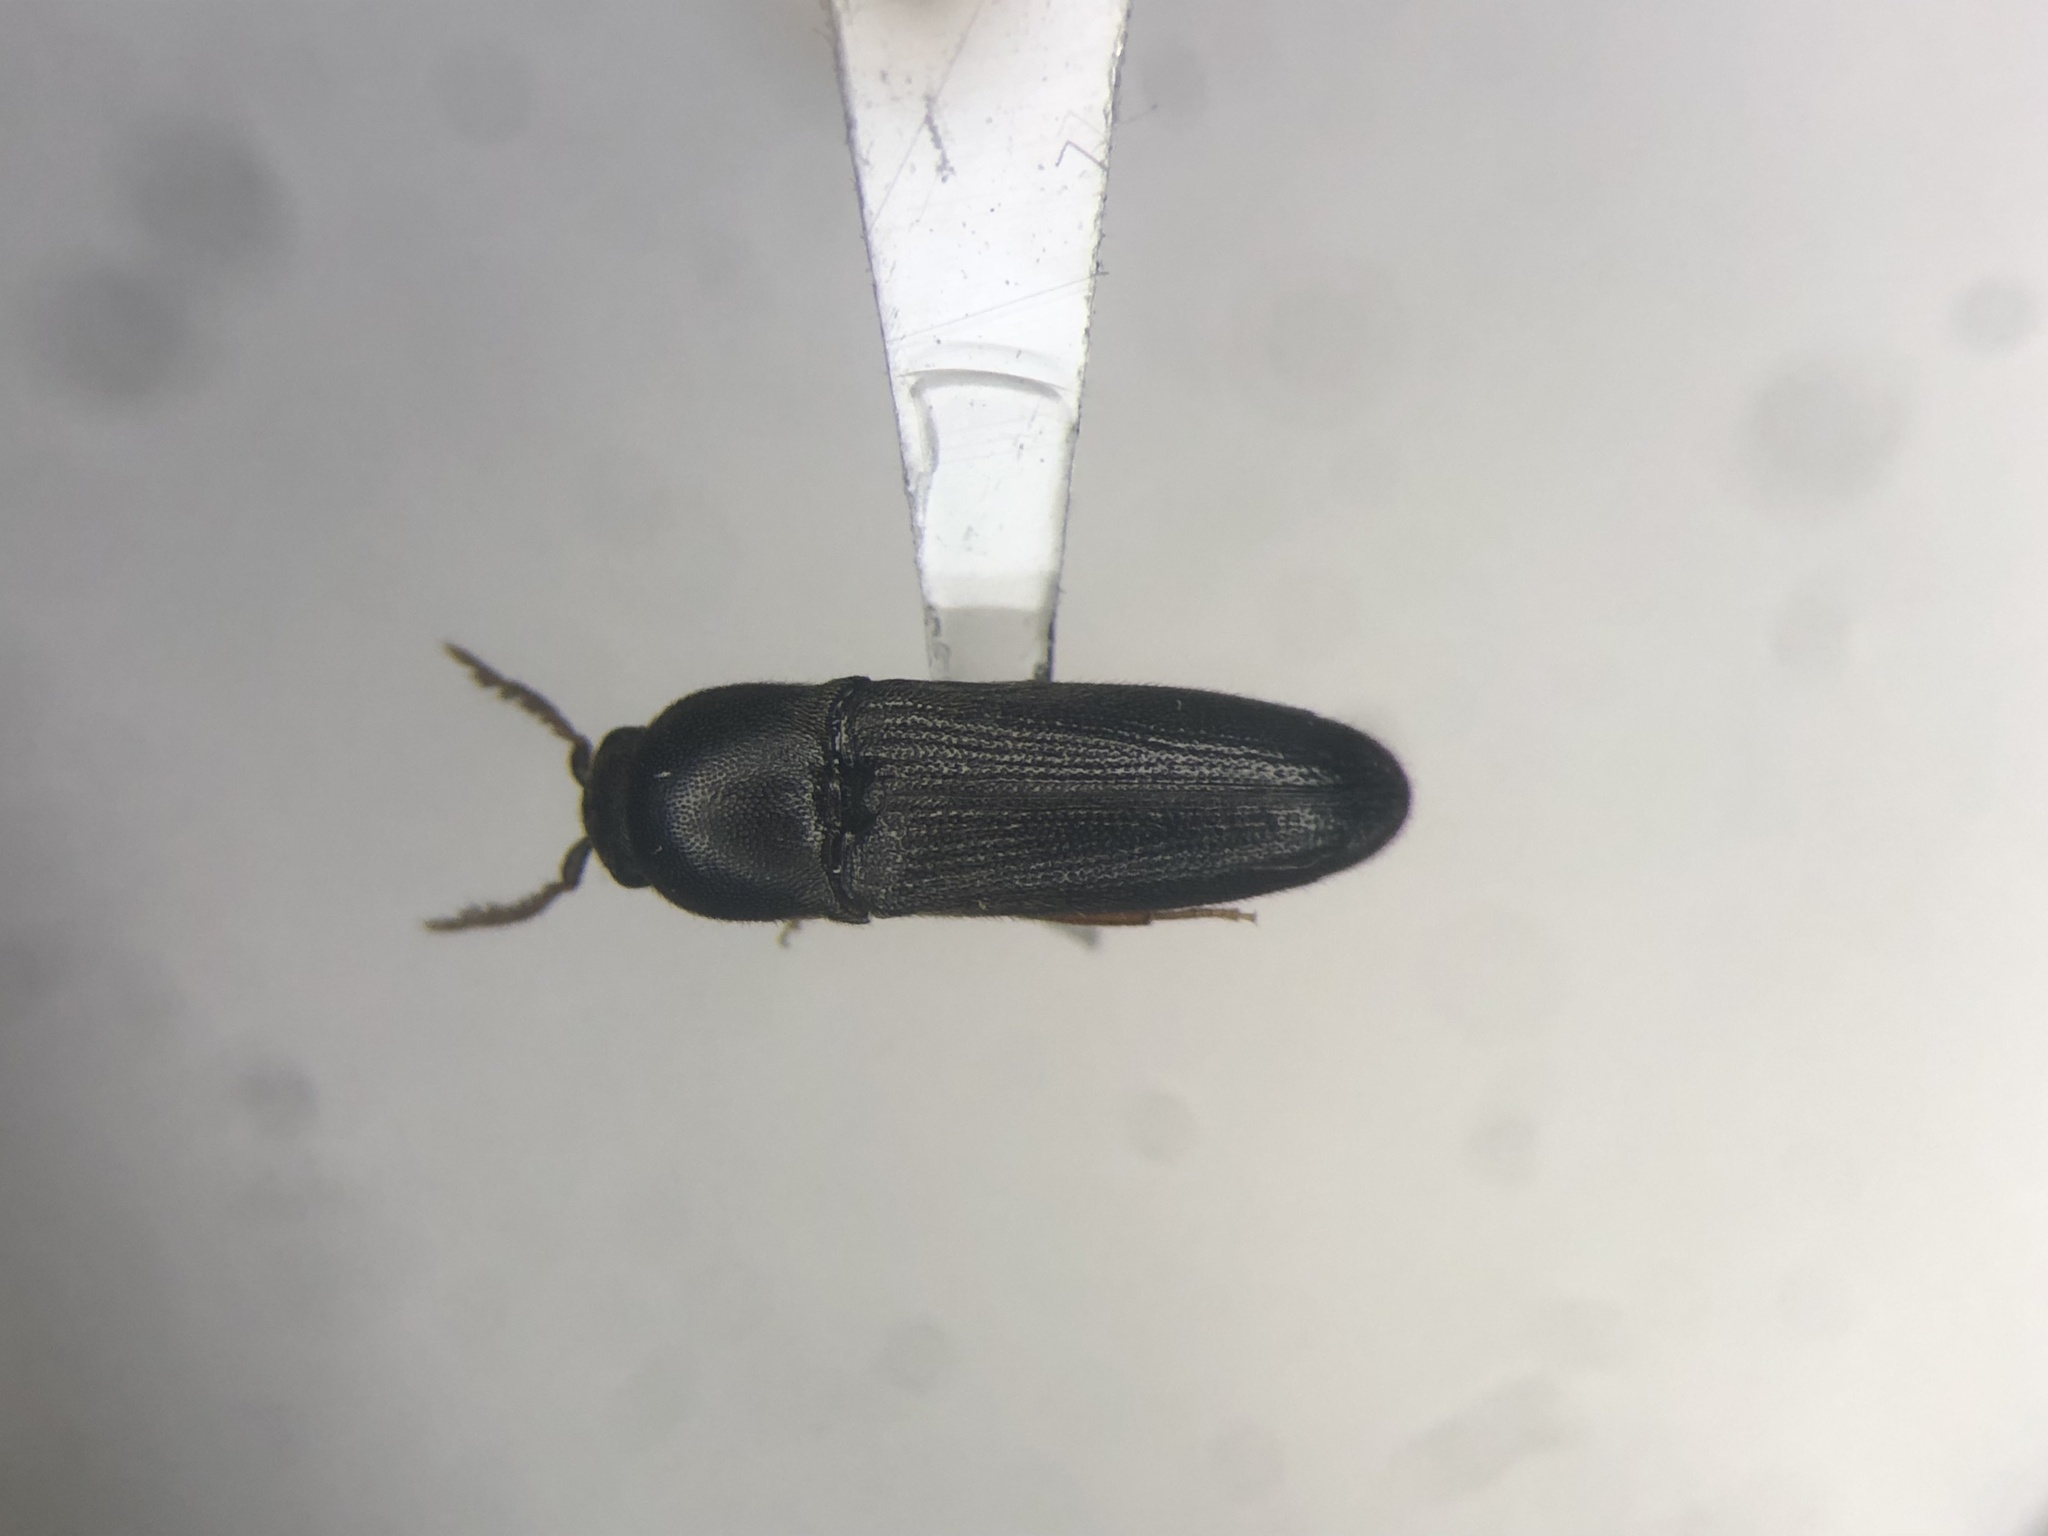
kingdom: Animalia
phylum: Arthropoda
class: Insecta
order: Coleoptera
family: Eucnemidae
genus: Deltometopus
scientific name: Deltometopus amoenicornis
